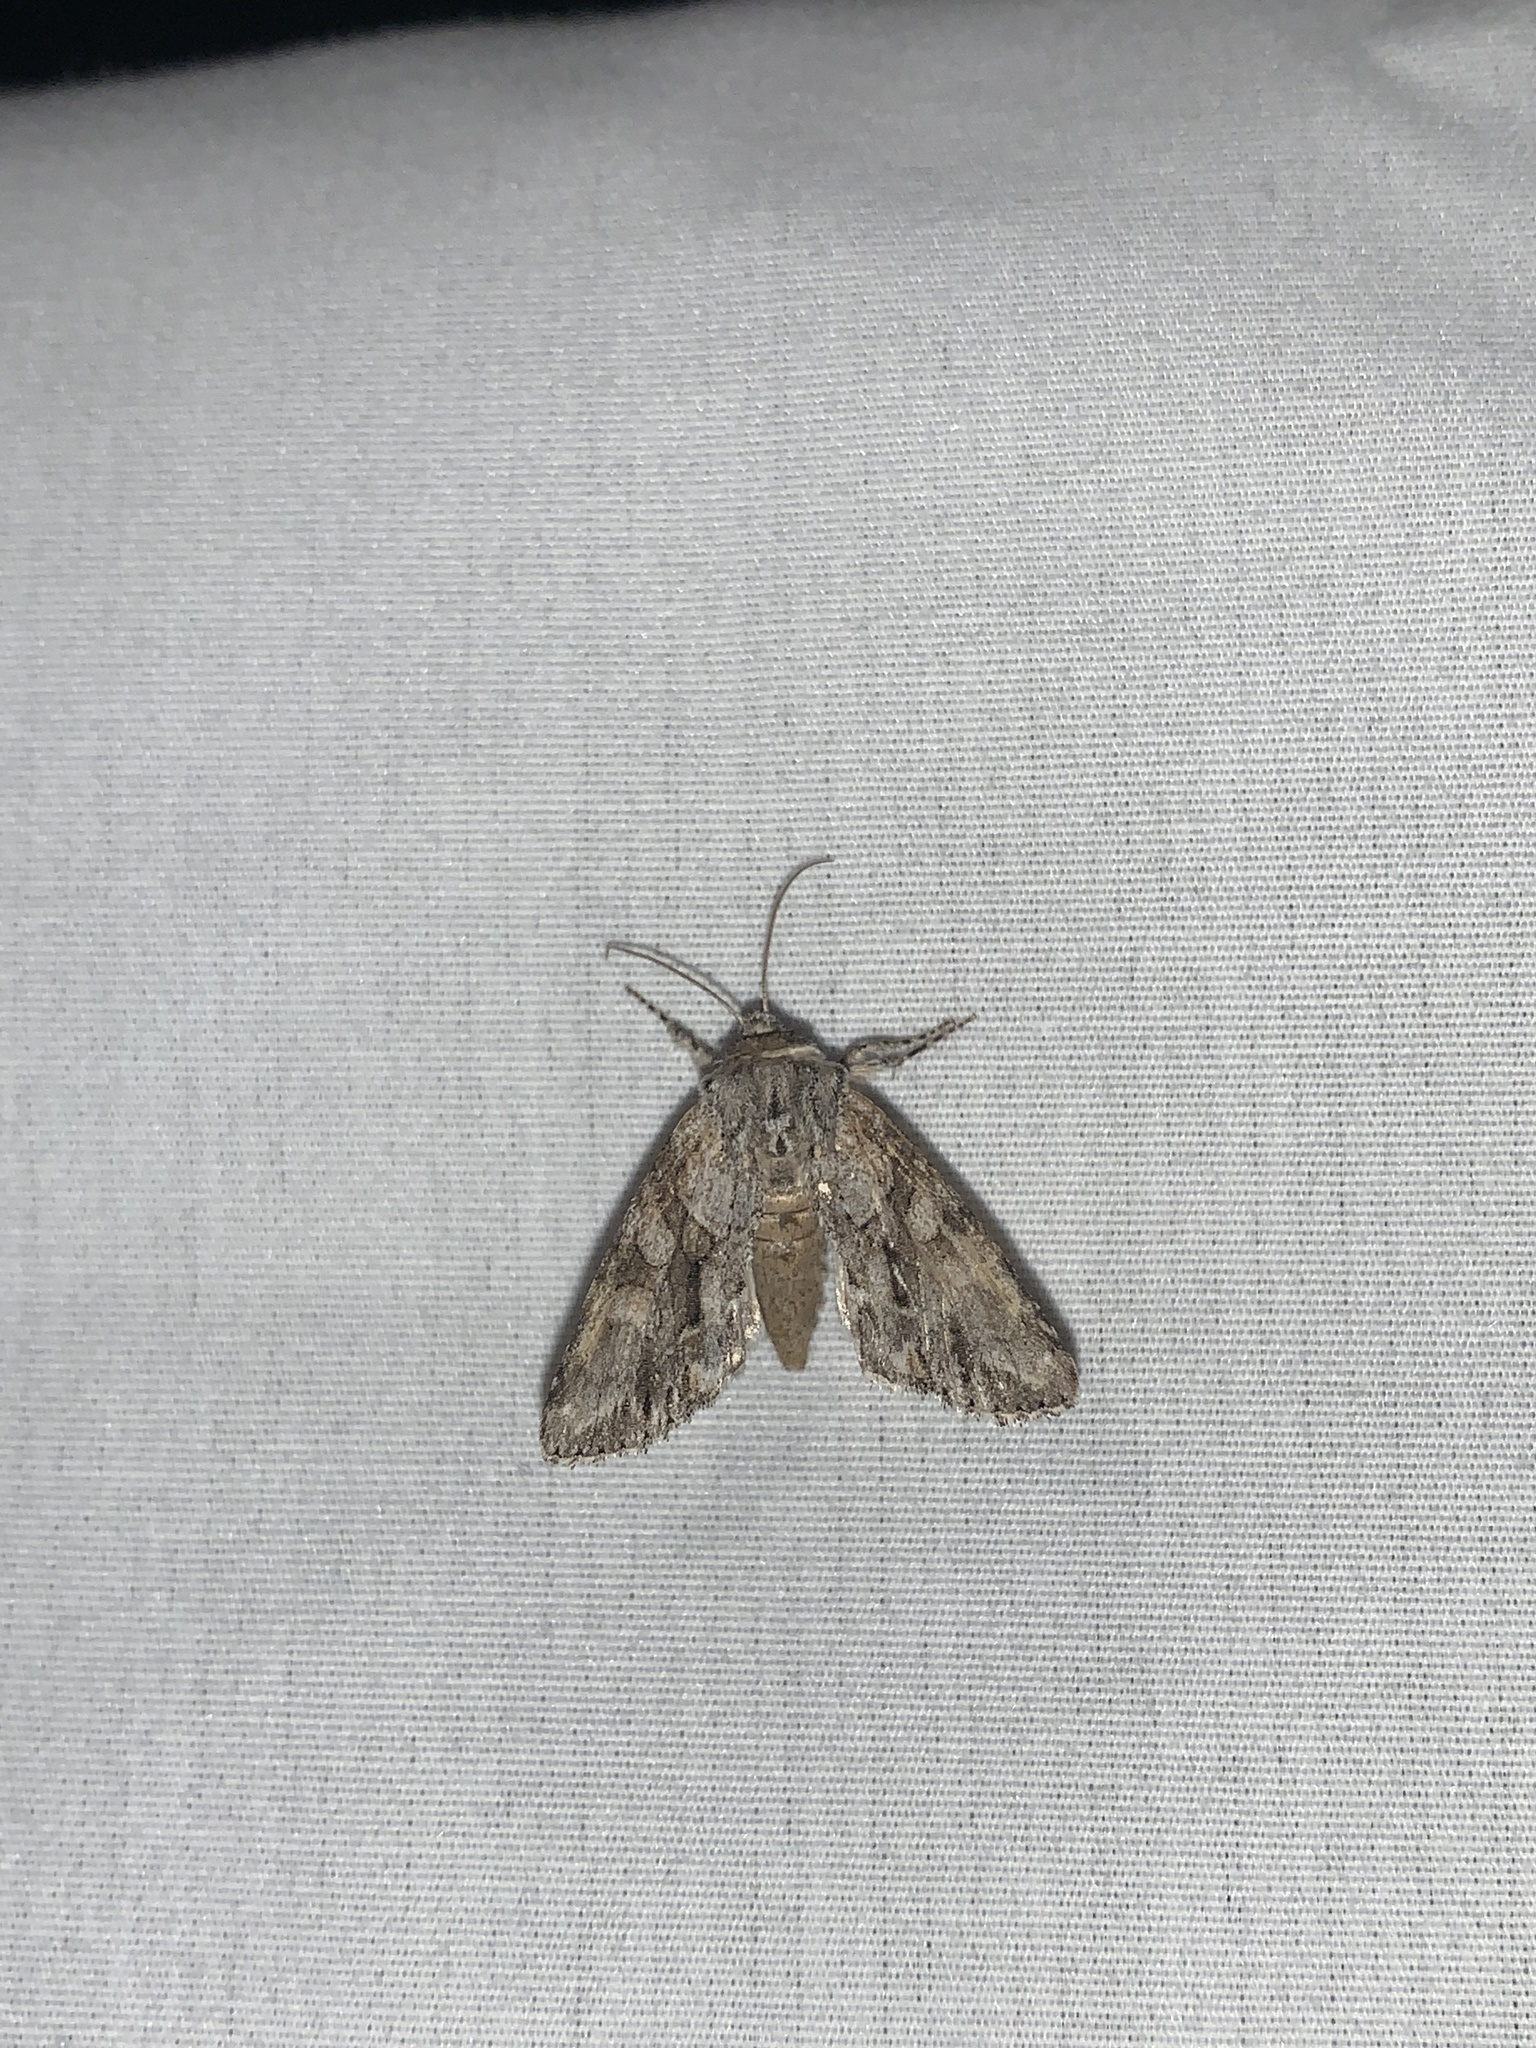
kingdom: Animalia
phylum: Arthropoda
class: Insecta
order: Lepidoptera
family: Noctuidae
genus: Achatia
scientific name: Achatia distincta
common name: Distinct quaker
